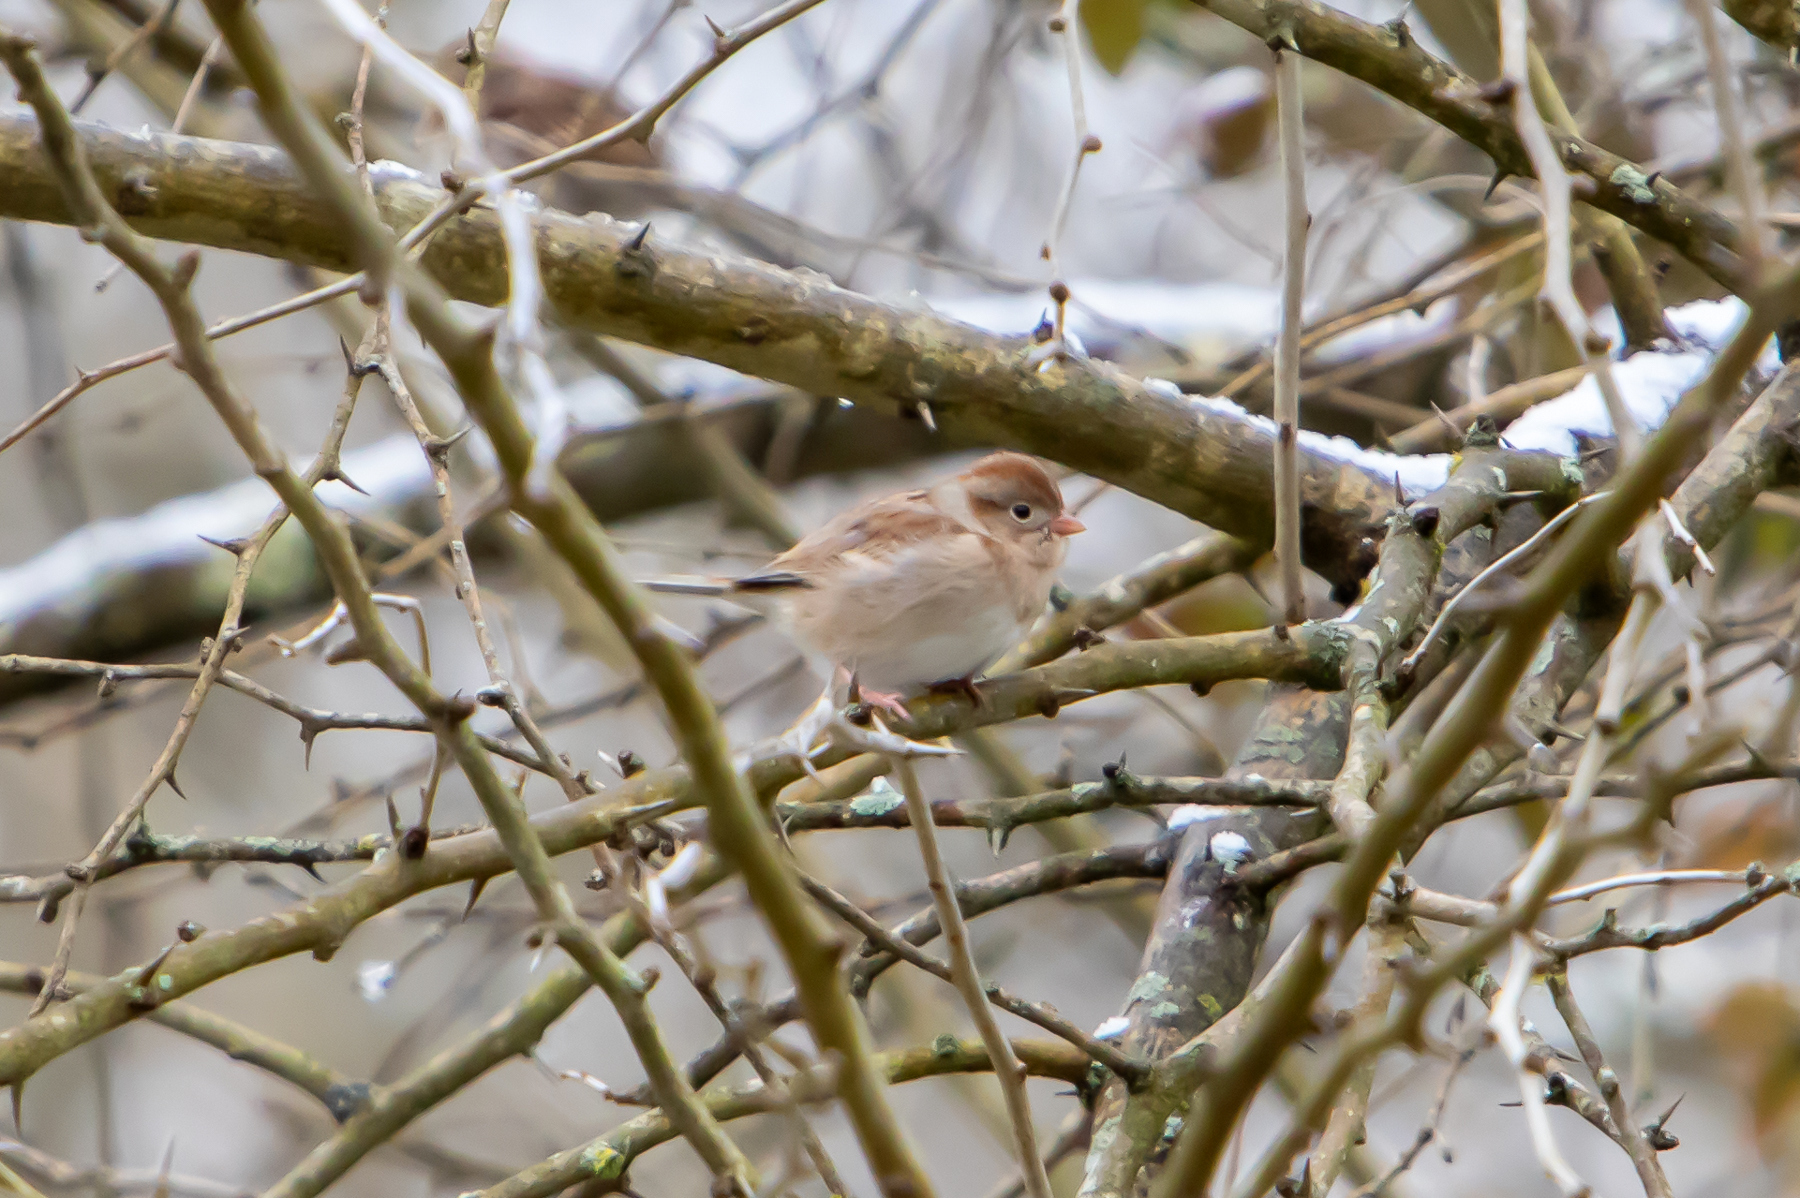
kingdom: Animalia
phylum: Chordata
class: Aves
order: Passeriformes
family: Passerellidae
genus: Spizella
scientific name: Spizella pusilla
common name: Field sparrow
